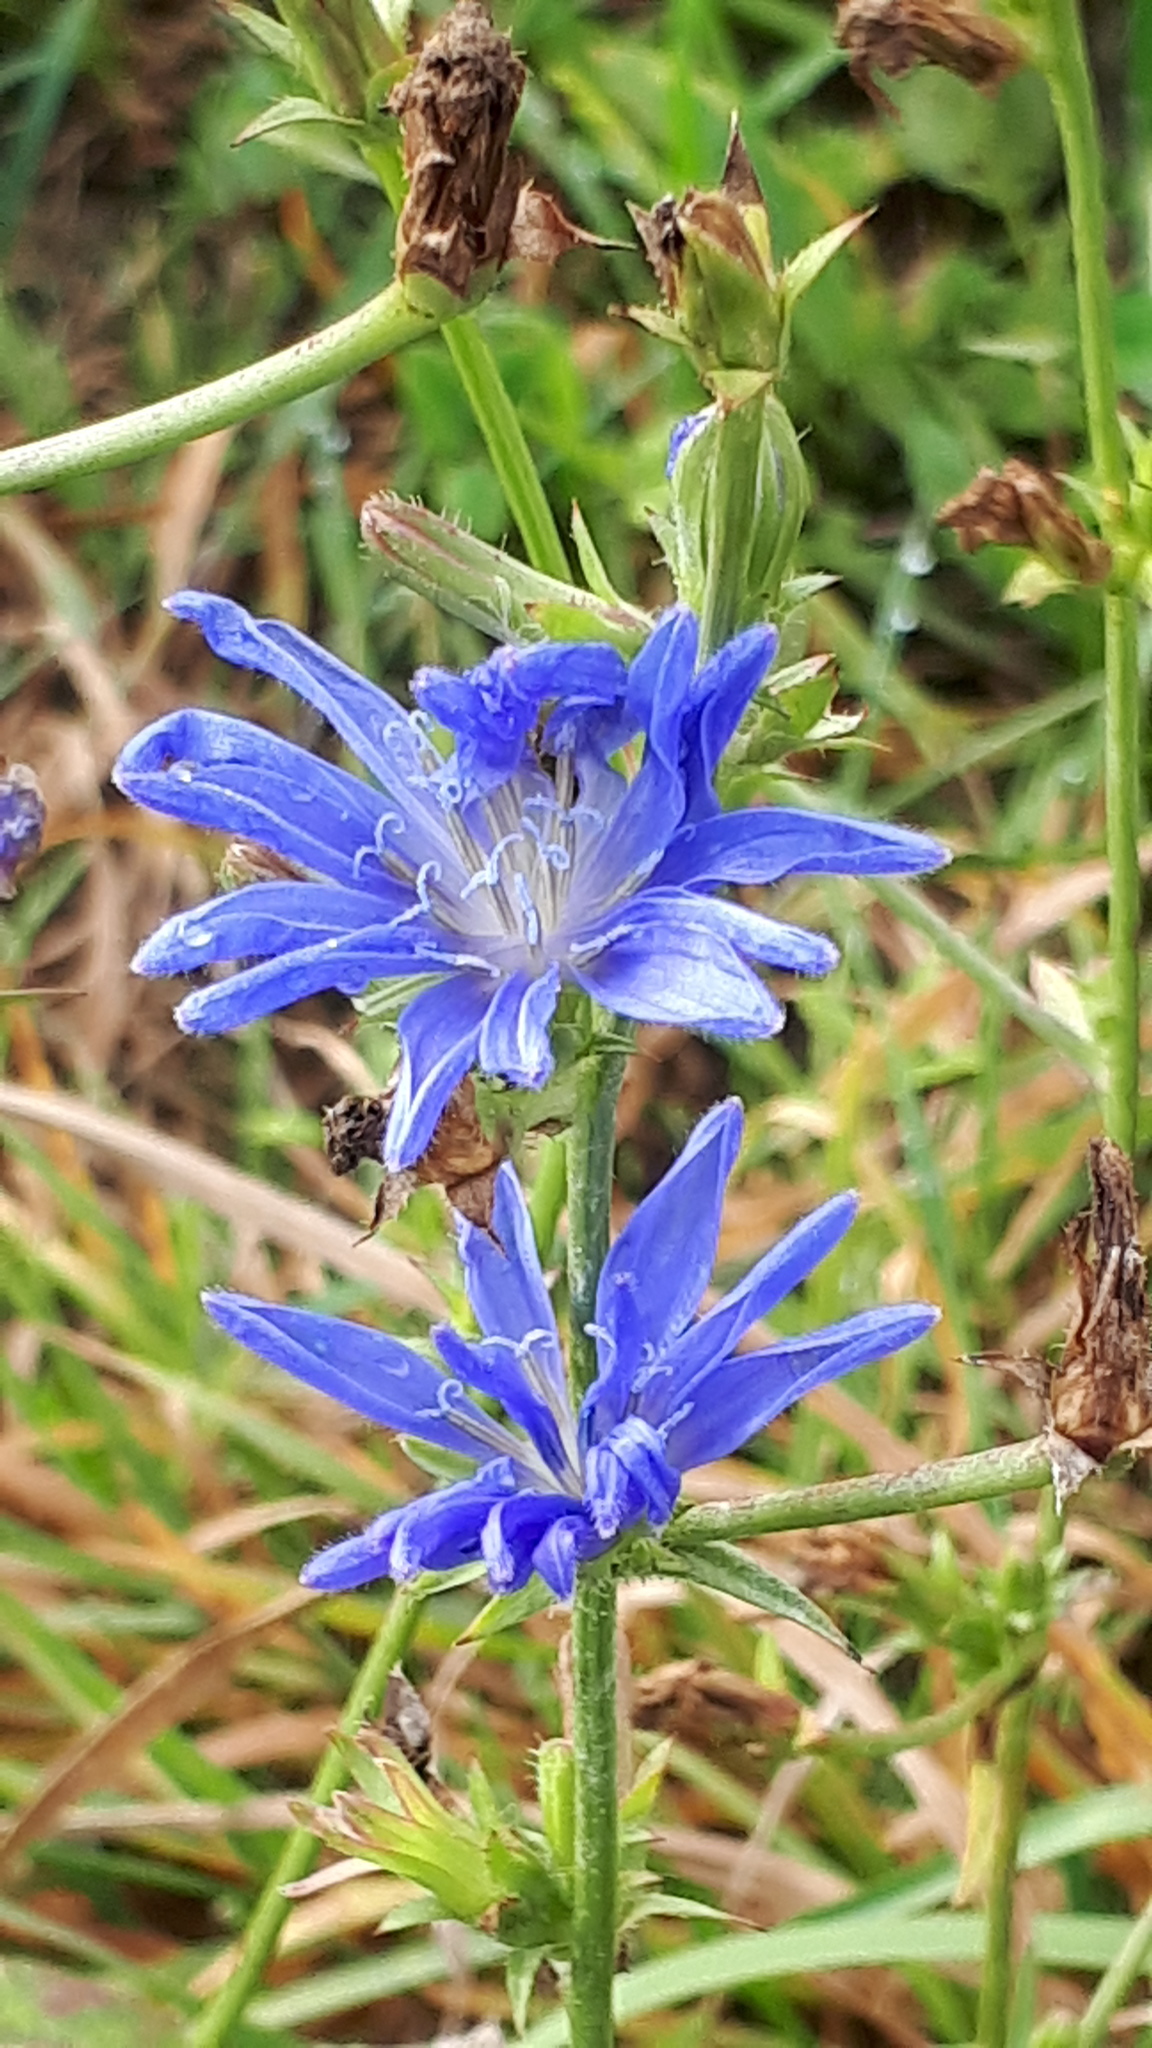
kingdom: Plantae
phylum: Tracheophyta
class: Magnoliopsida
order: Asterales
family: Asteraceae
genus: Cichorium
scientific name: Cichorium intybus
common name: Chicory
